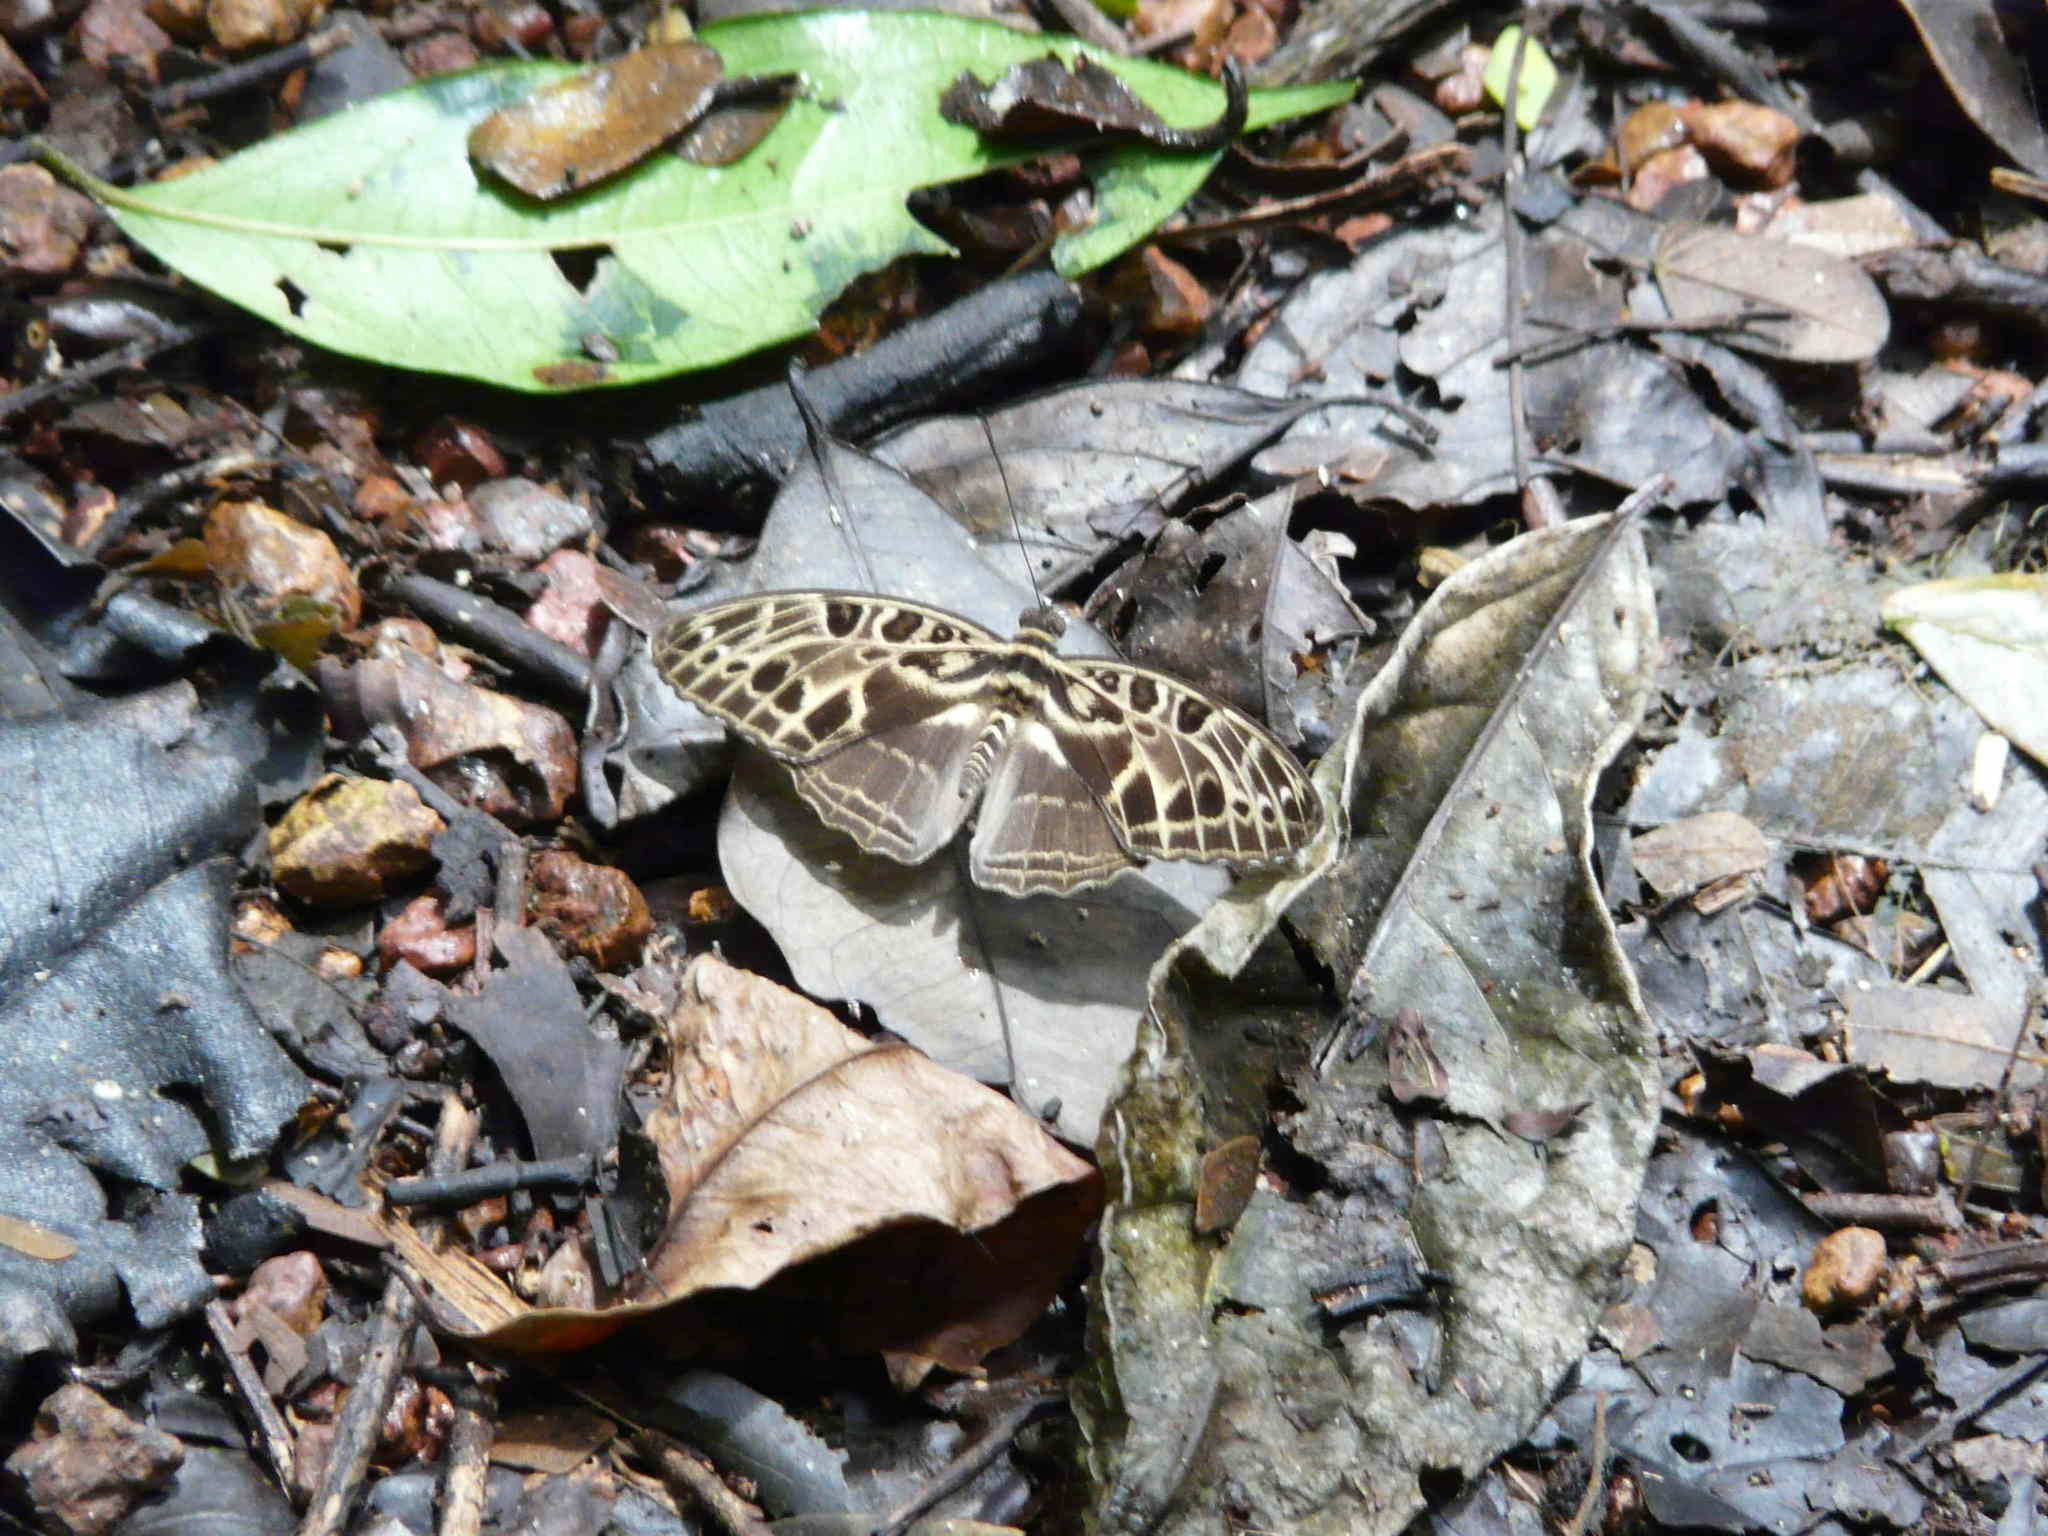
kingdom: Animalia
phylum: Arthropoda
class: Insecta
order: Lepidoptera
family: Nymphalidae
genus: Catuna
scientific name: Catuna
